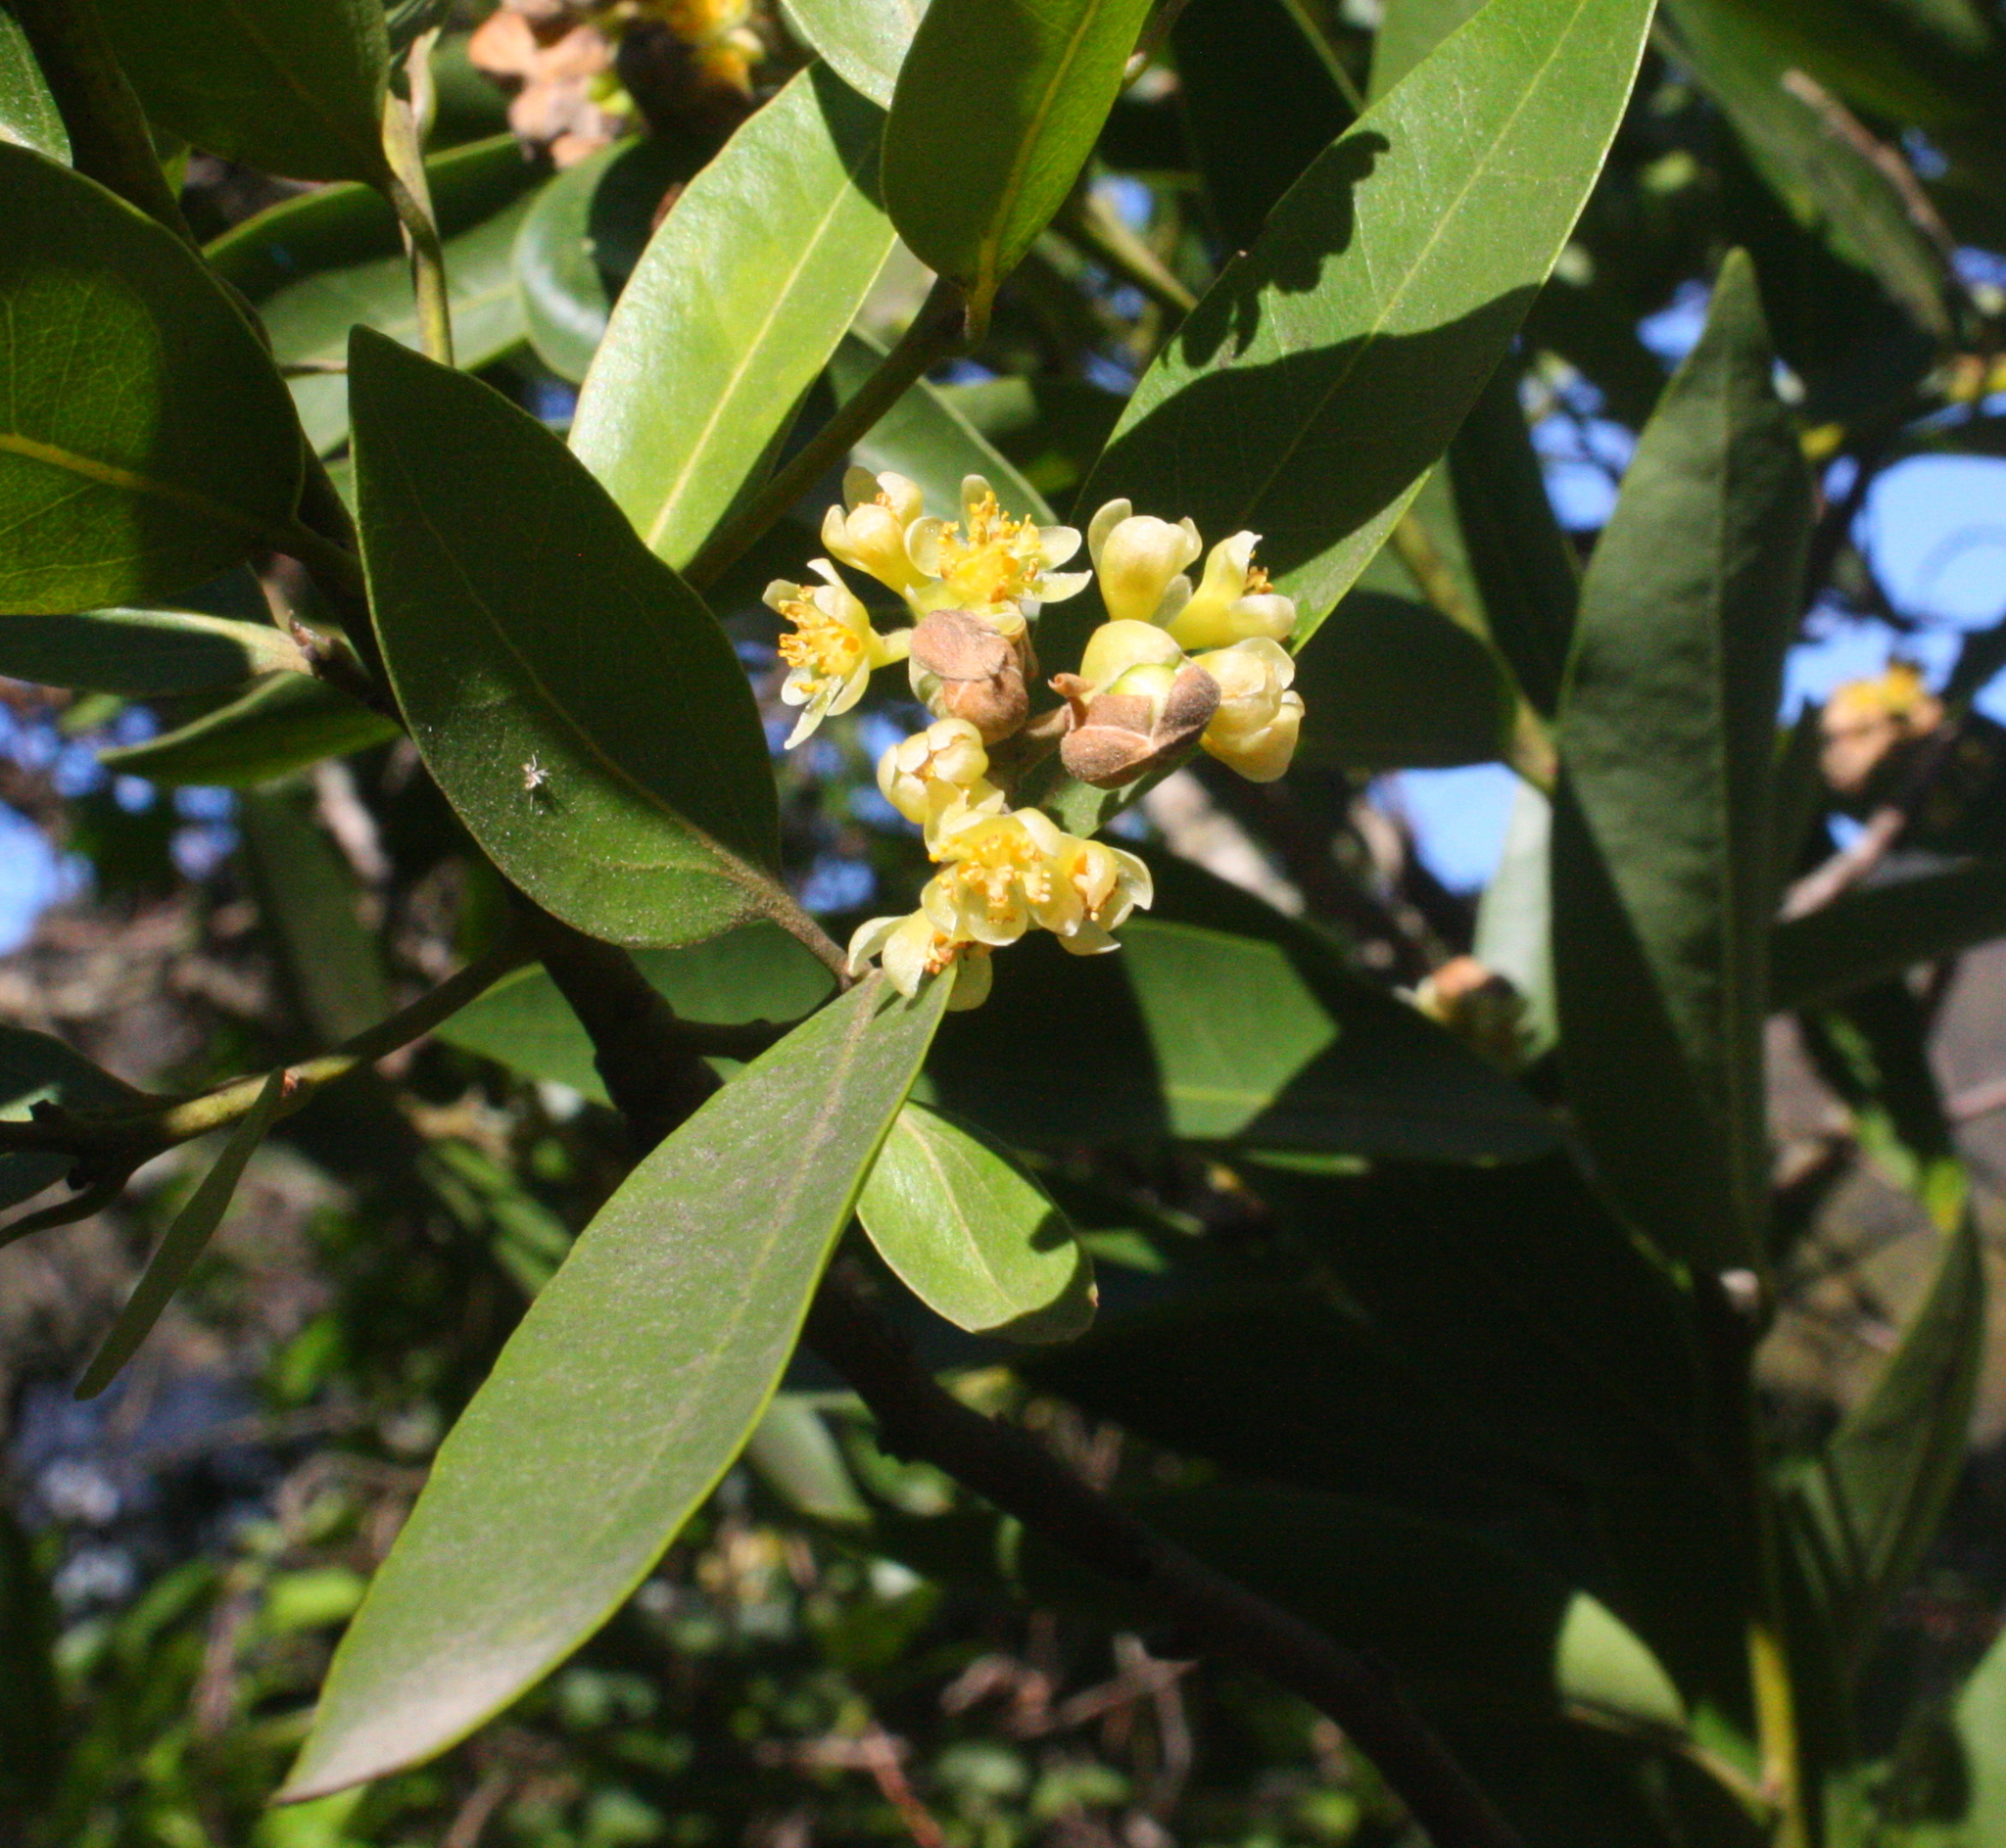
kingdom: Plantae
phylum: Tracheophyta
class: Magnoliopsida
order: Laurales
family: Lauraceae
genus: Umbellularia
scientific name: Umbellularia californica
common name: California bay
